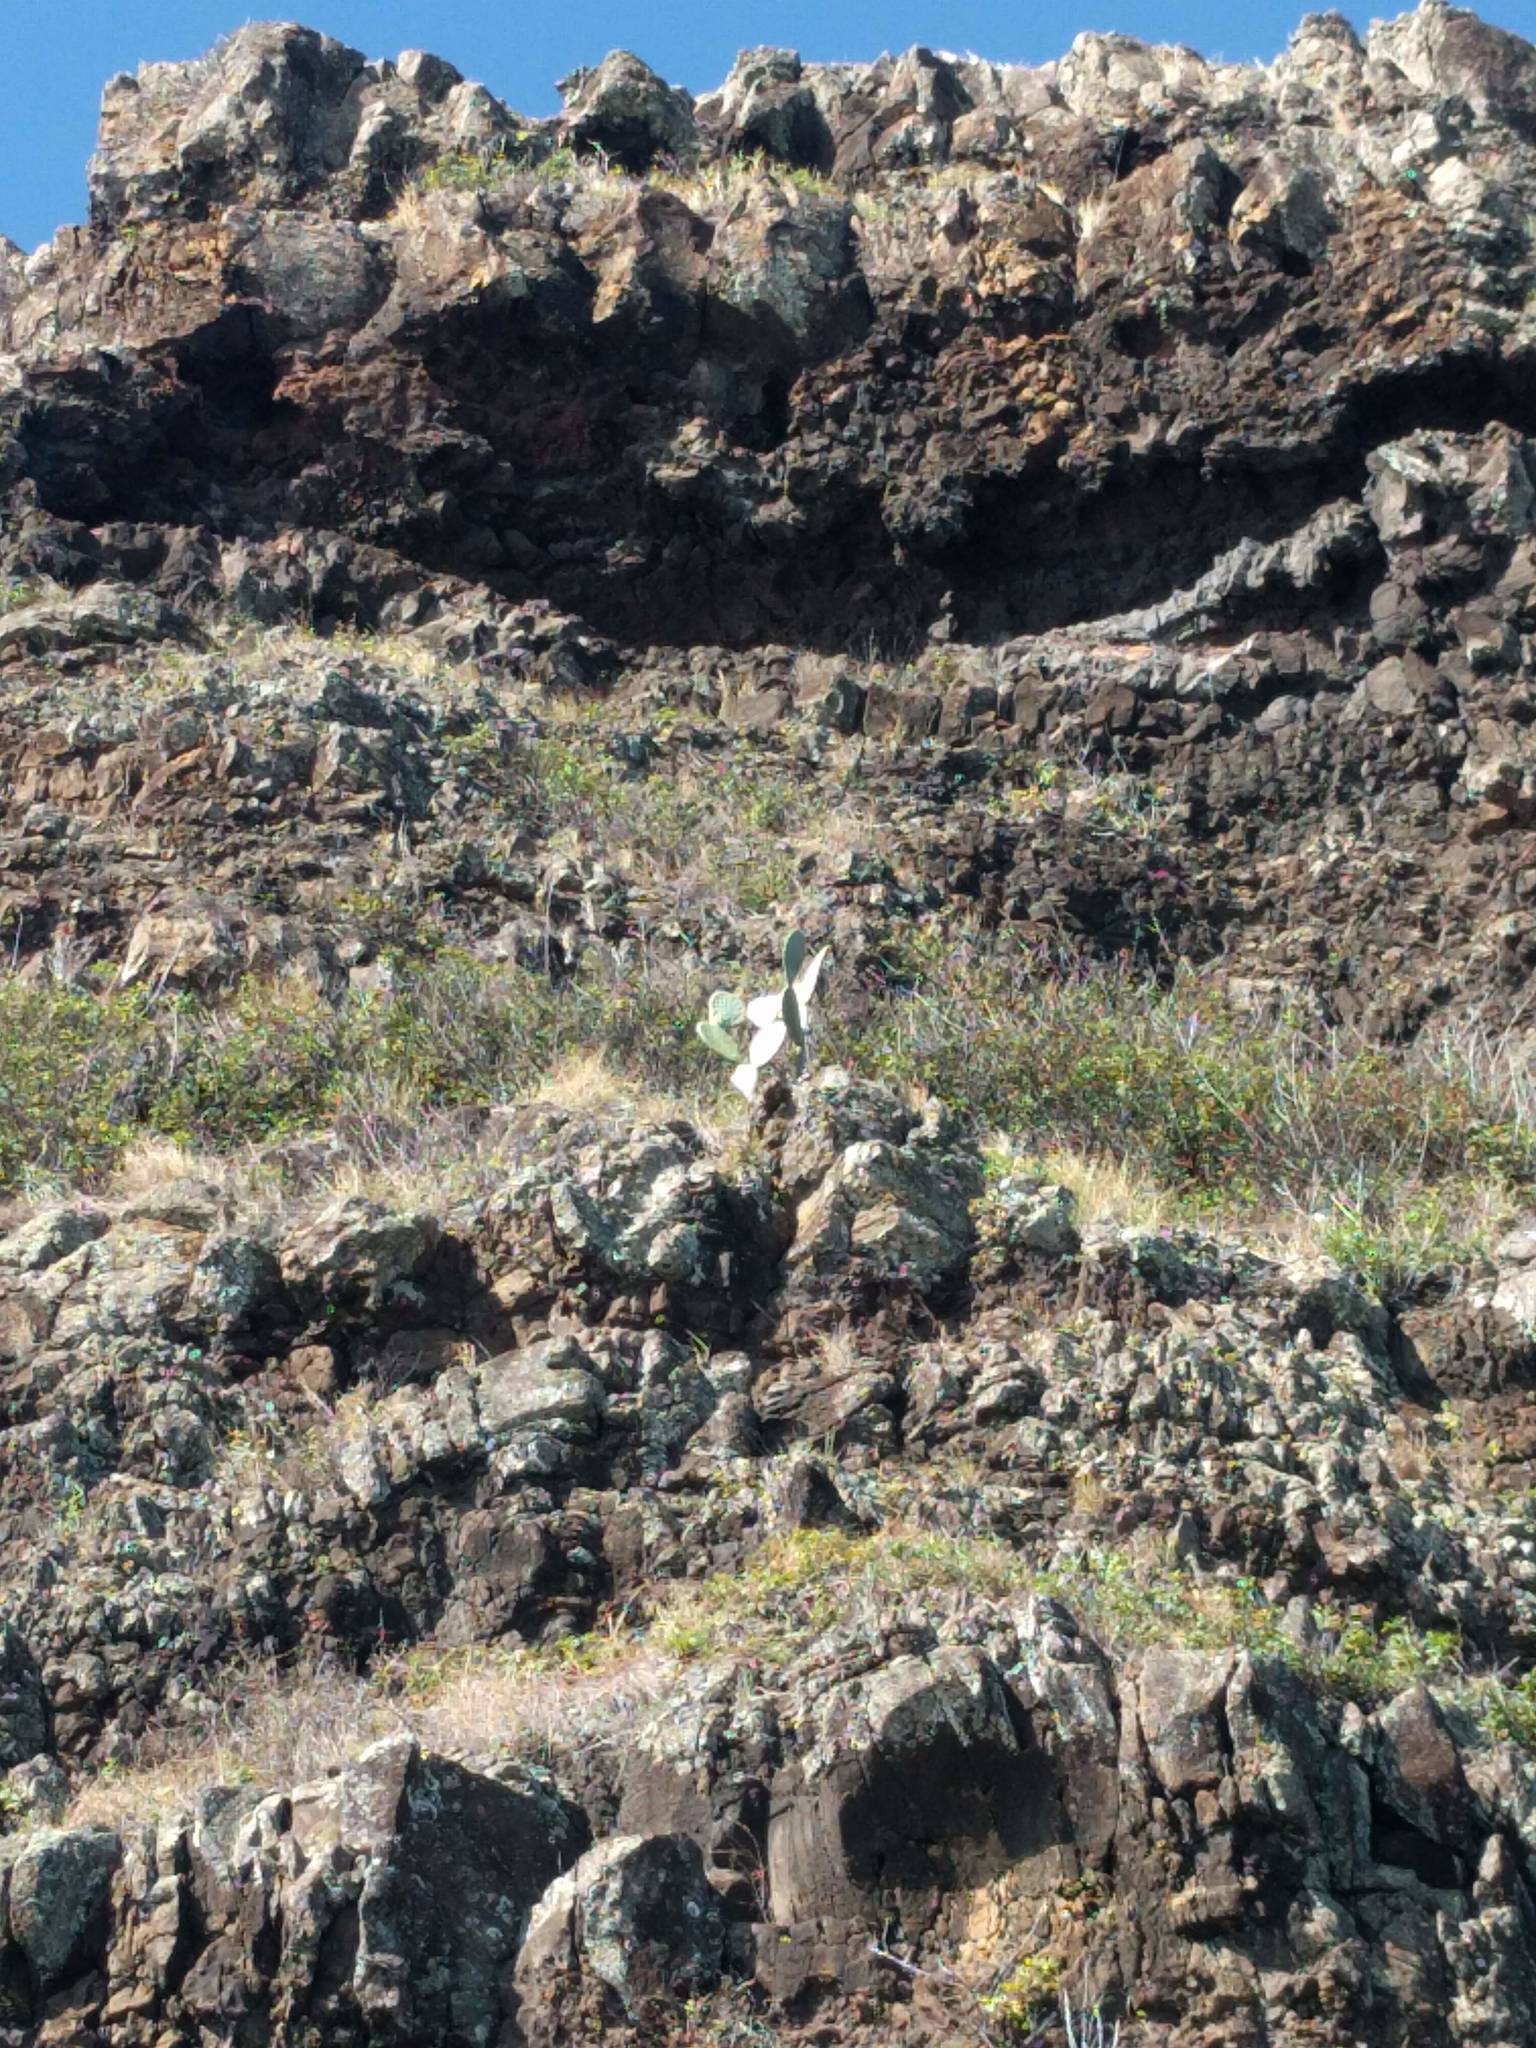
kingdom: Plantae
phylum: Tracheophyta
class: Magnoliopsida
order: Caryophyllales
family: Cactaceae
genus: Opuntia
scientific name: Opuntia ficus-indica
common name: Barbary fig
